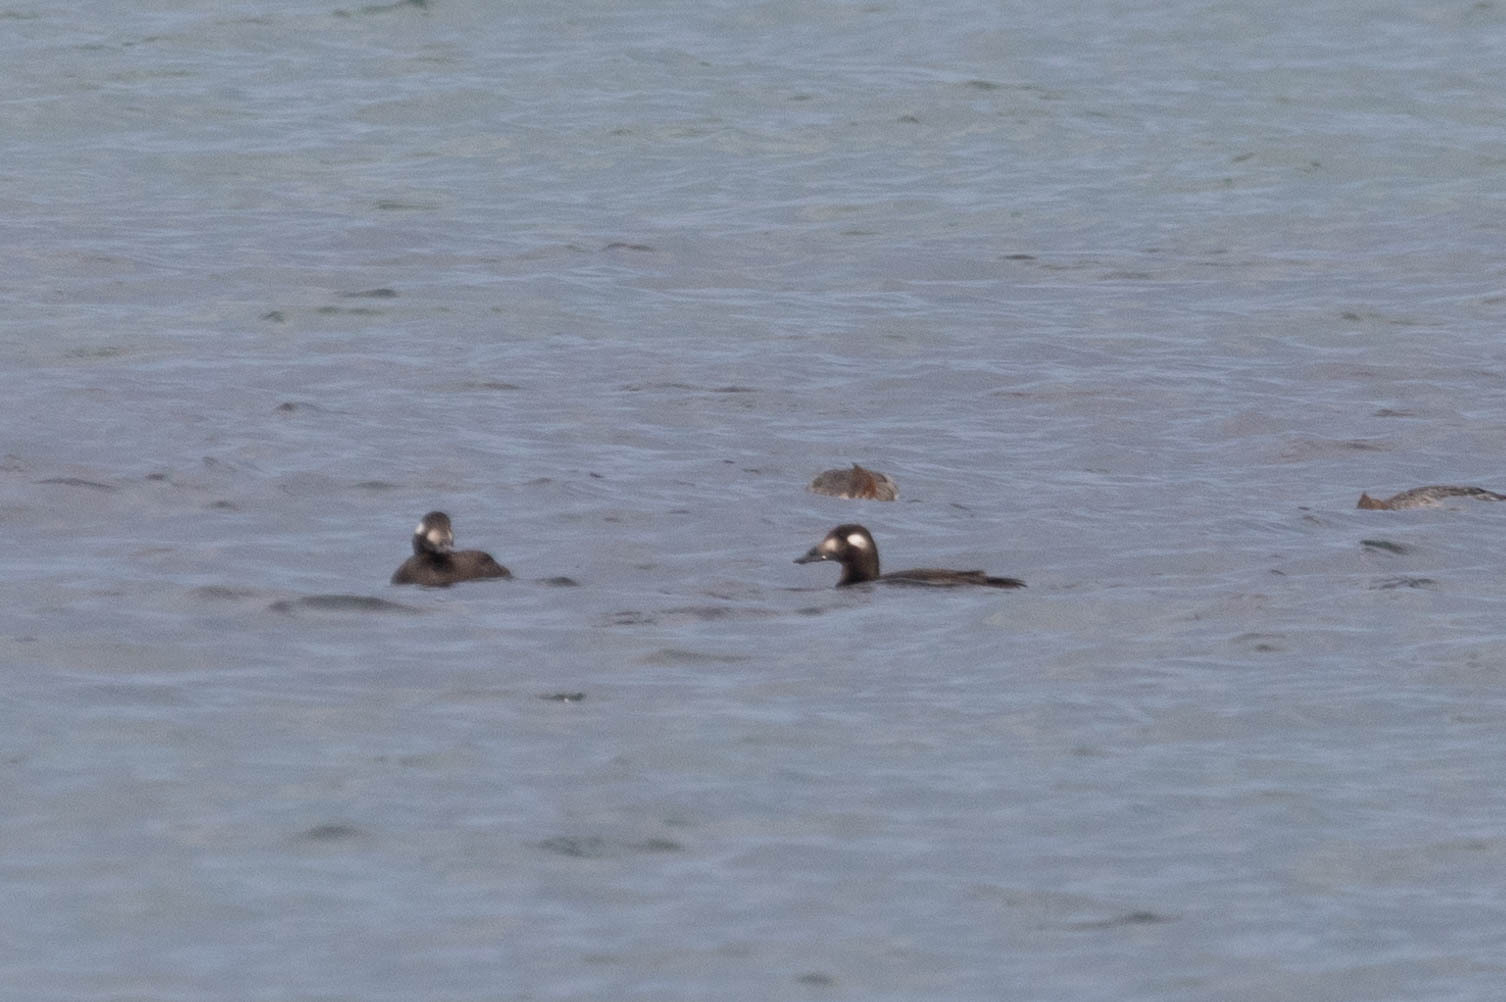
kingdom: Animalia
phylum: Chordata
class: Aves
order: Anseriformes
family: Anatidae
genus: Melanitta
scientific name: Melanitta deglandi
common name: White-winged scoter
